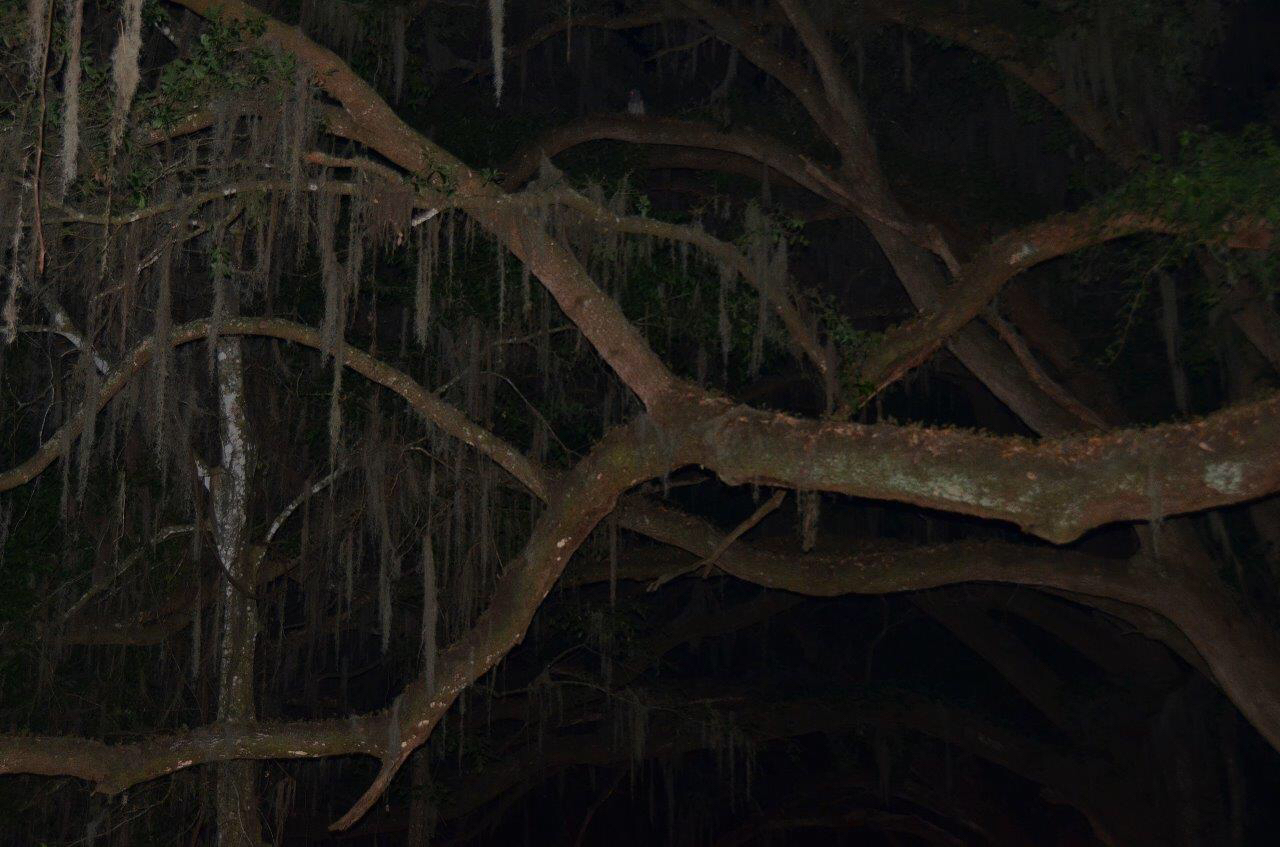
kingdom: Animalia
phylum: Chordata
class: Aves
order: Strigiformes
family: Strigidae
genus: Strix
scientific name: Strix varia
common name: Barred owl
